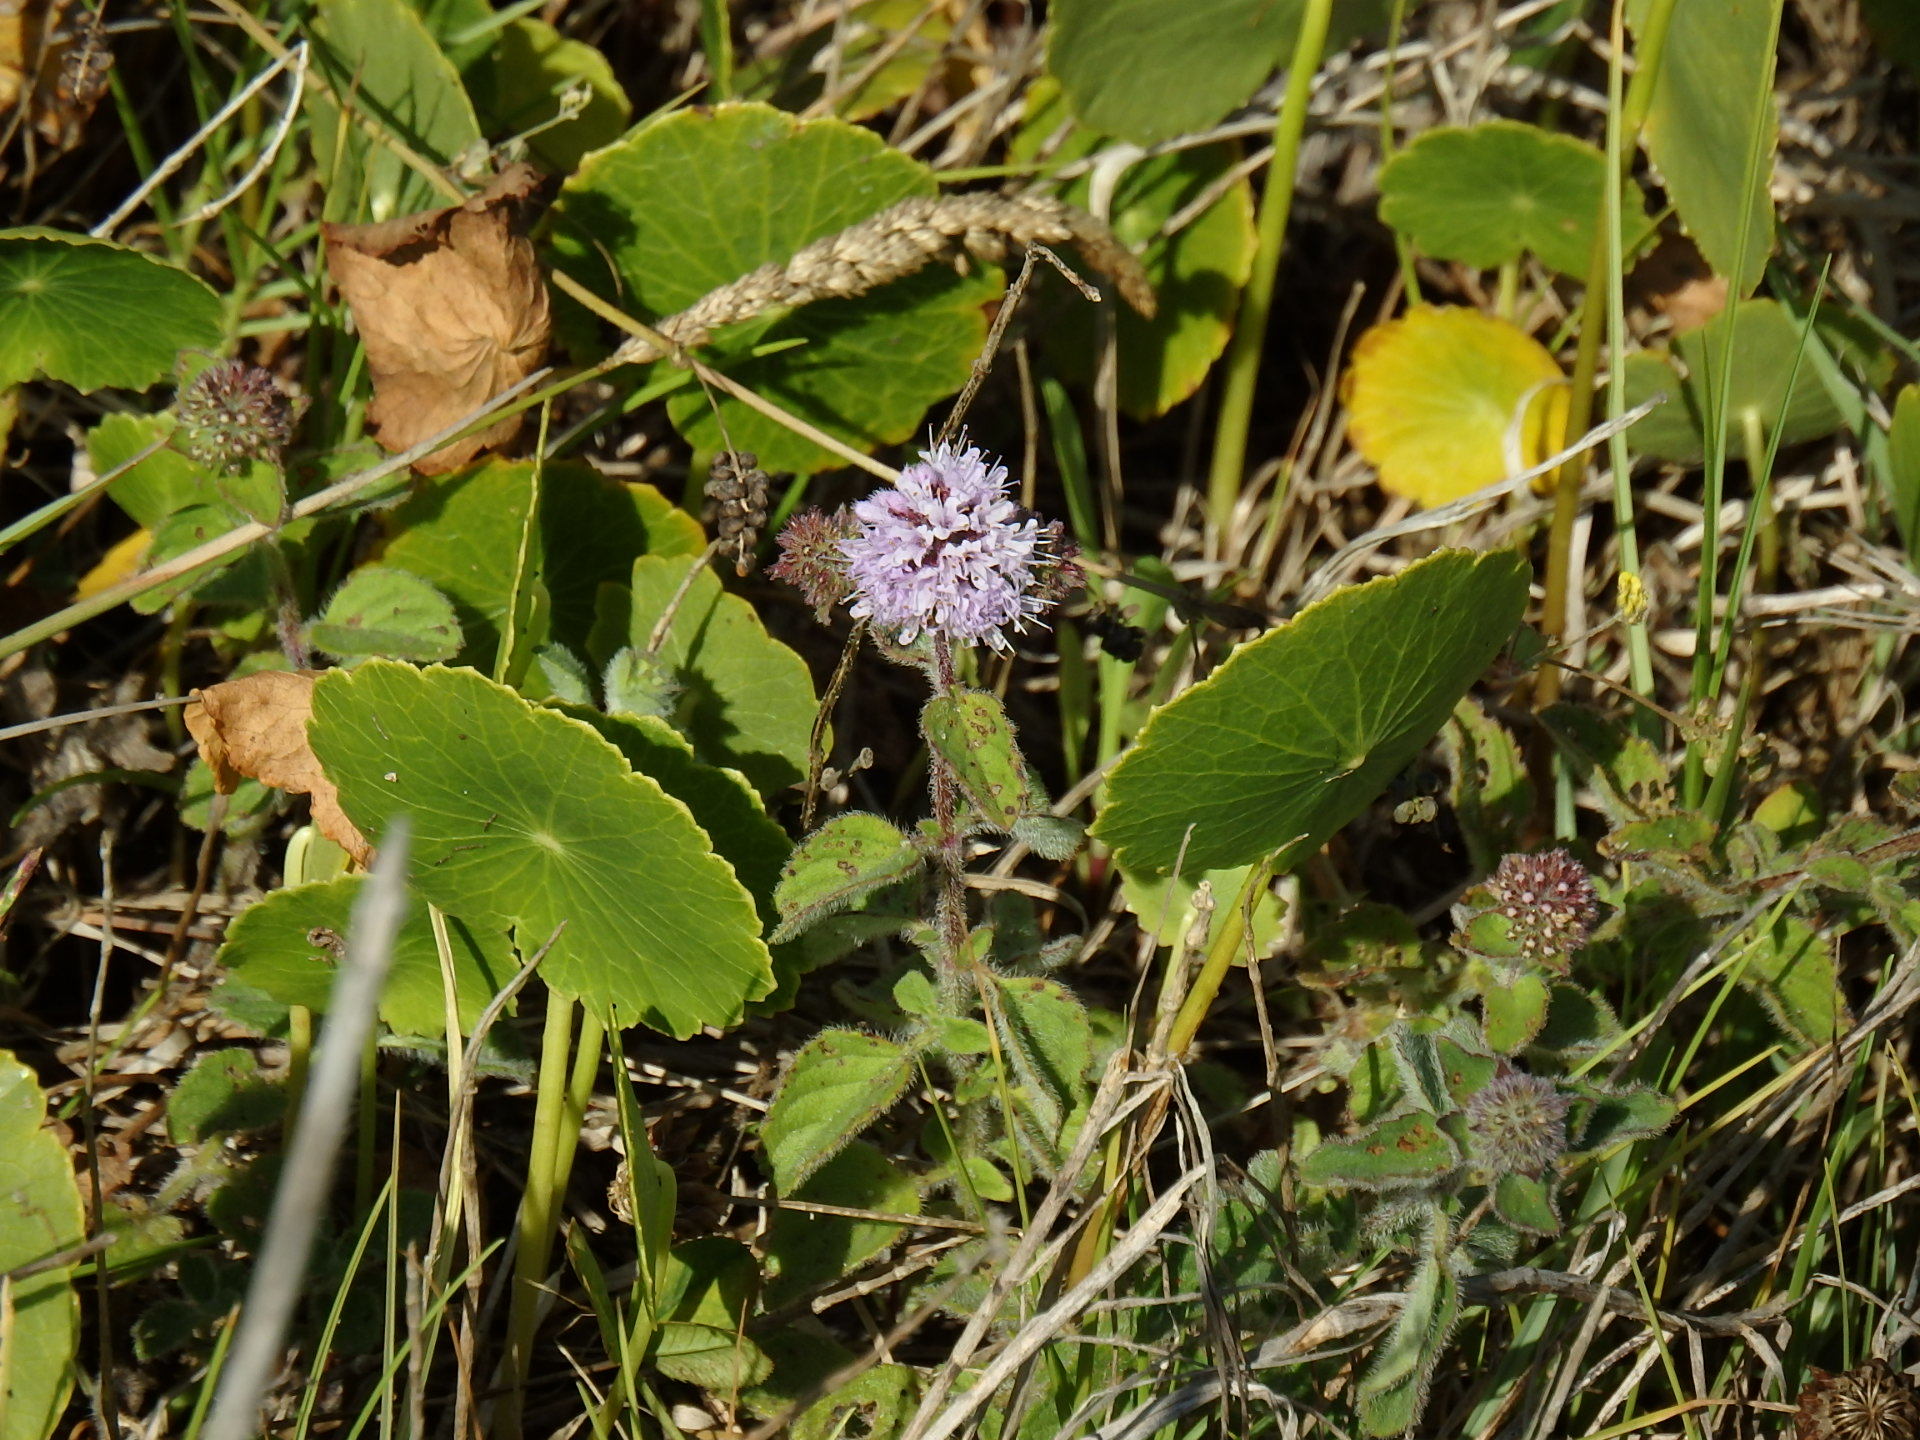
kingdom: Plantae
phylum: Tracheophyta
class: Magnoliopsida
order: Lamiales
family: Lamiaceae
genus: Mentha
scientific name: Mentha aquatica
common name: Water mint
